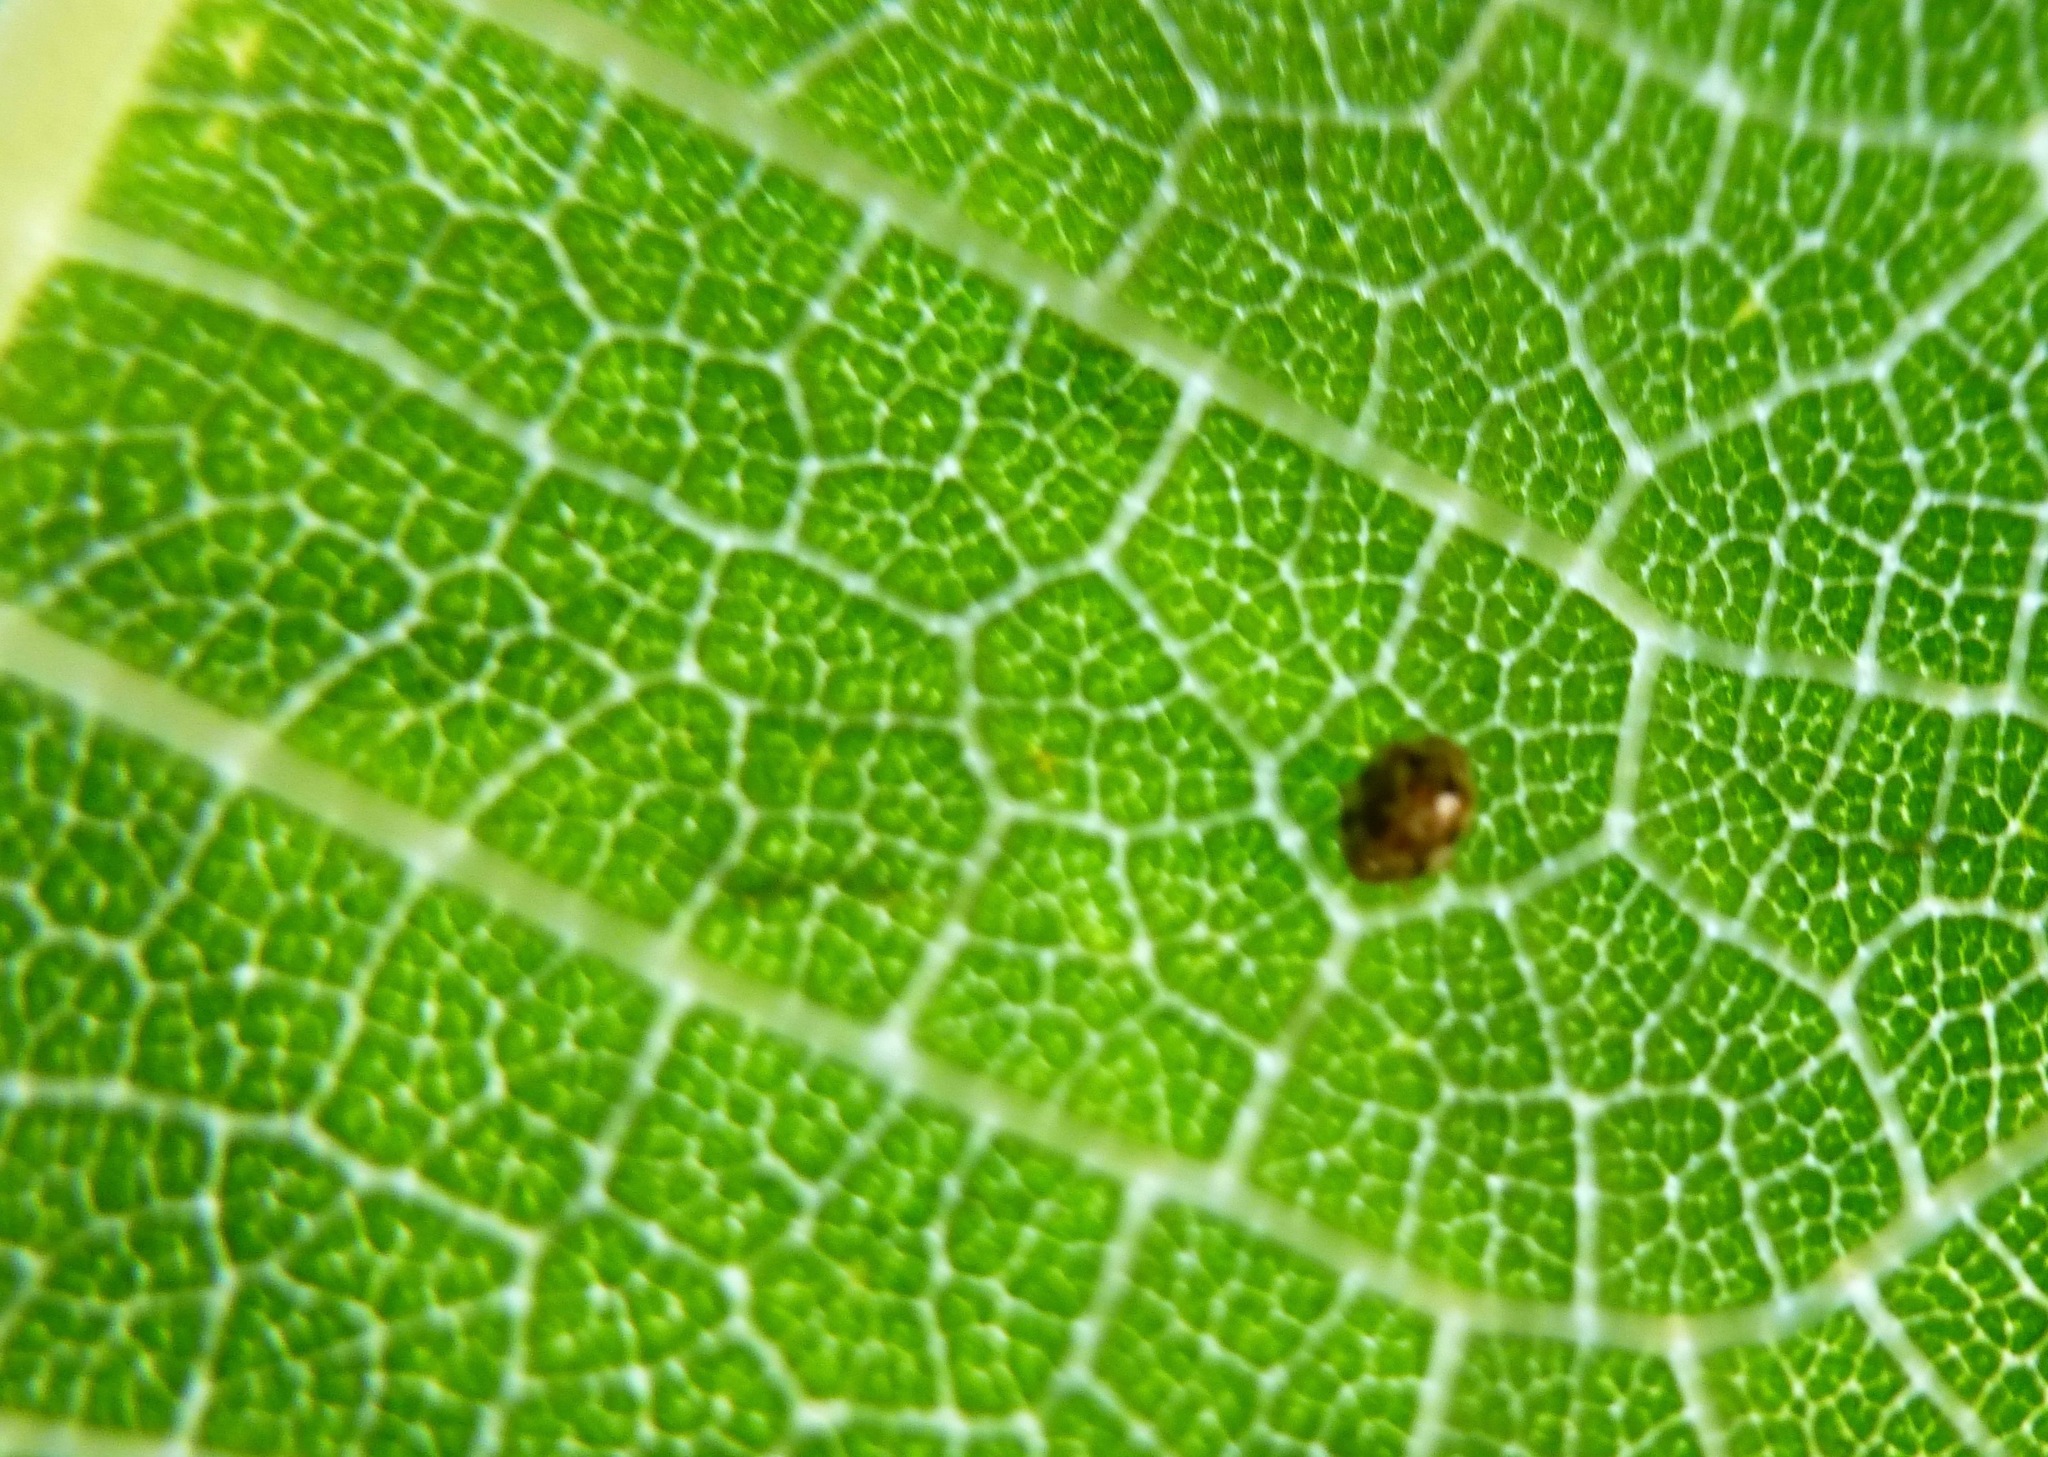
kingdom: Animalia
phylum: Arthropoda
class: Insecta
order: Coleoptera
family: Coccinellidae
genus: Psyllobora
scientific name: Psyllobora
